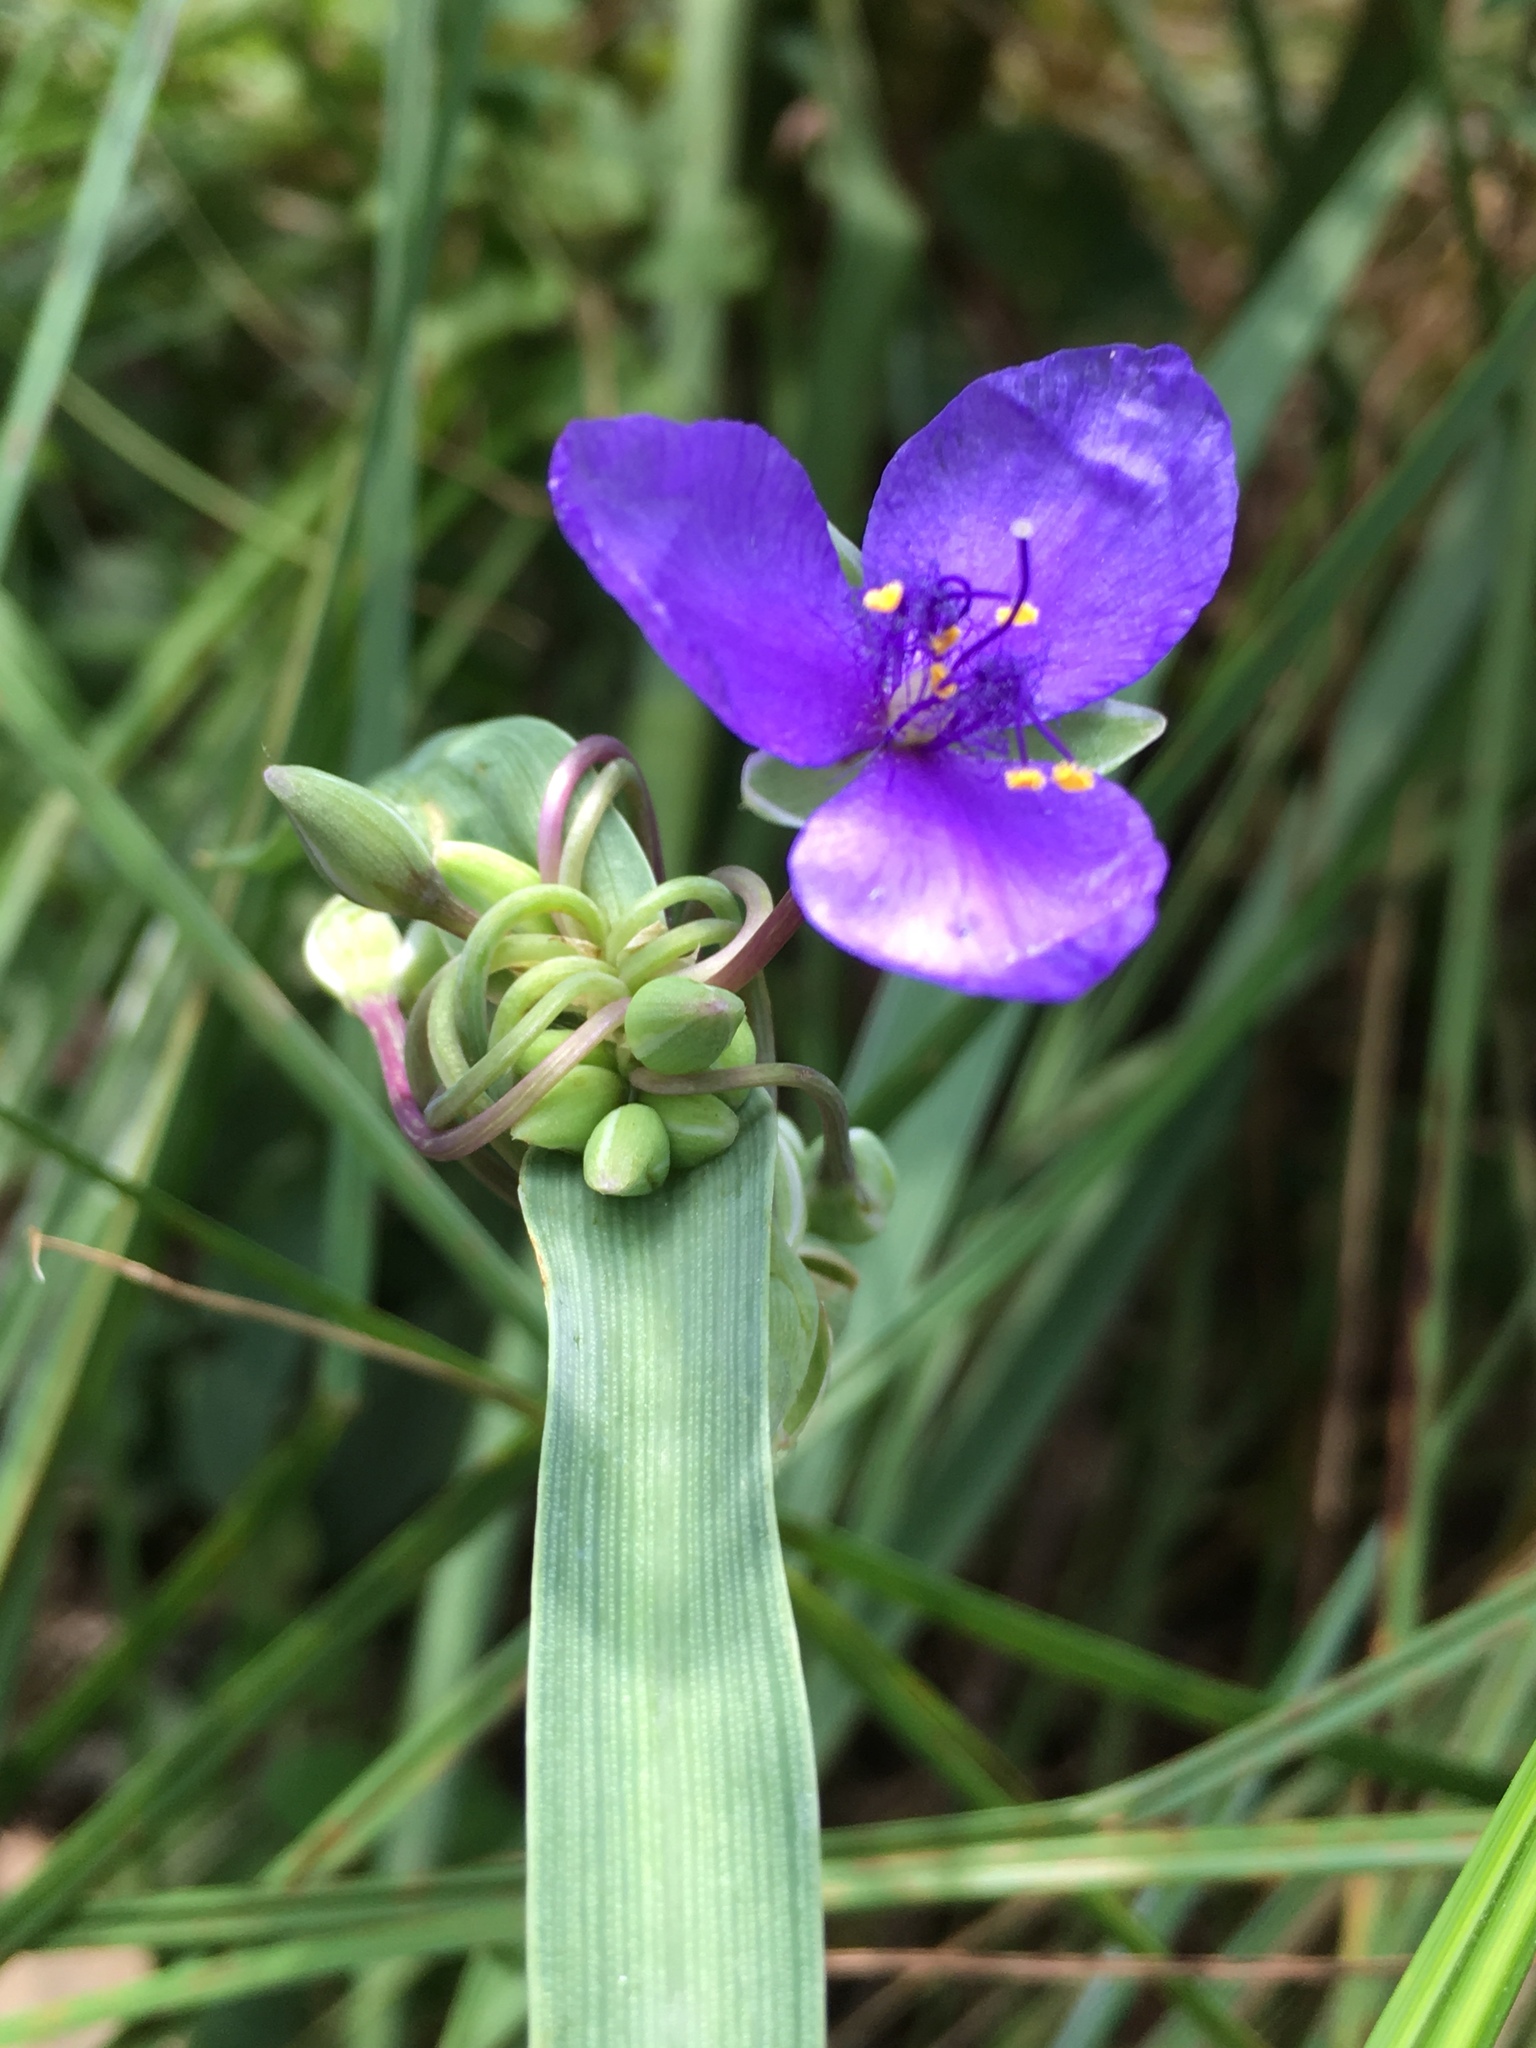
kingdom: Plantae
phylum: Tracheophyta
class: Liliopsida
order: Commelinales
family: Commelinaceae
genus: Tradescantia
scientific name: Tradescantia ohiensis
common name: Ohio spiderwort
